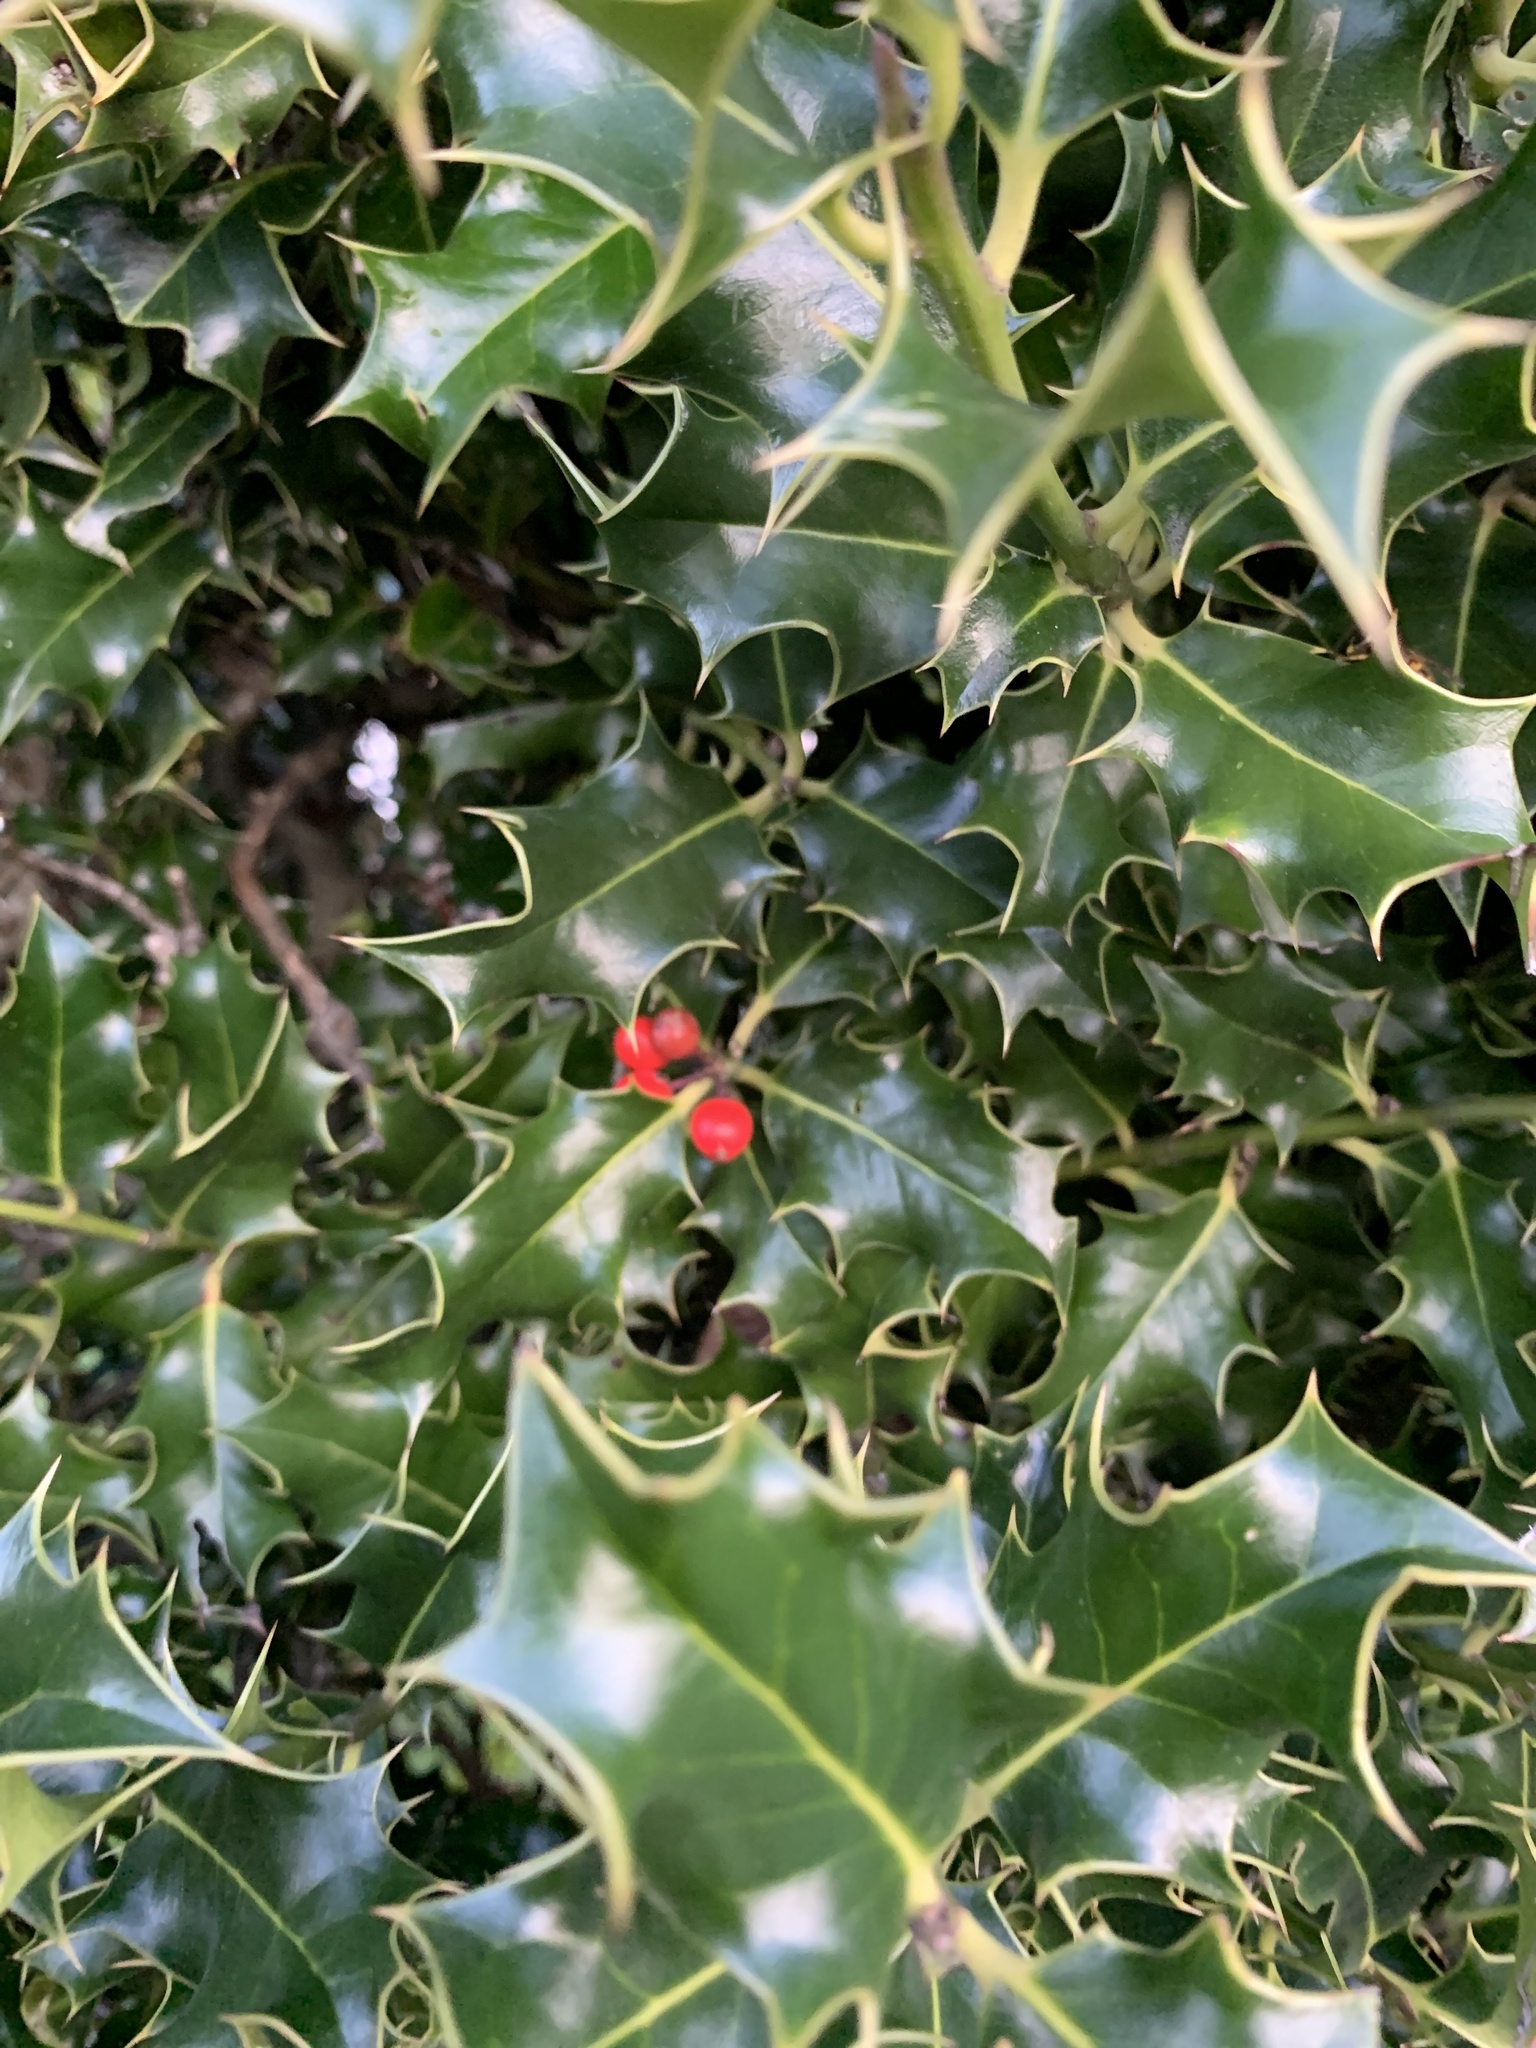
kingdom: Plantae
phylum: Tracheophyta
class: Magnoliopsida
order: Aquifoliales
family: Aquifoliaceae
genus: Ilex
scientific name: Ilex aquifolium
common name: English holly
